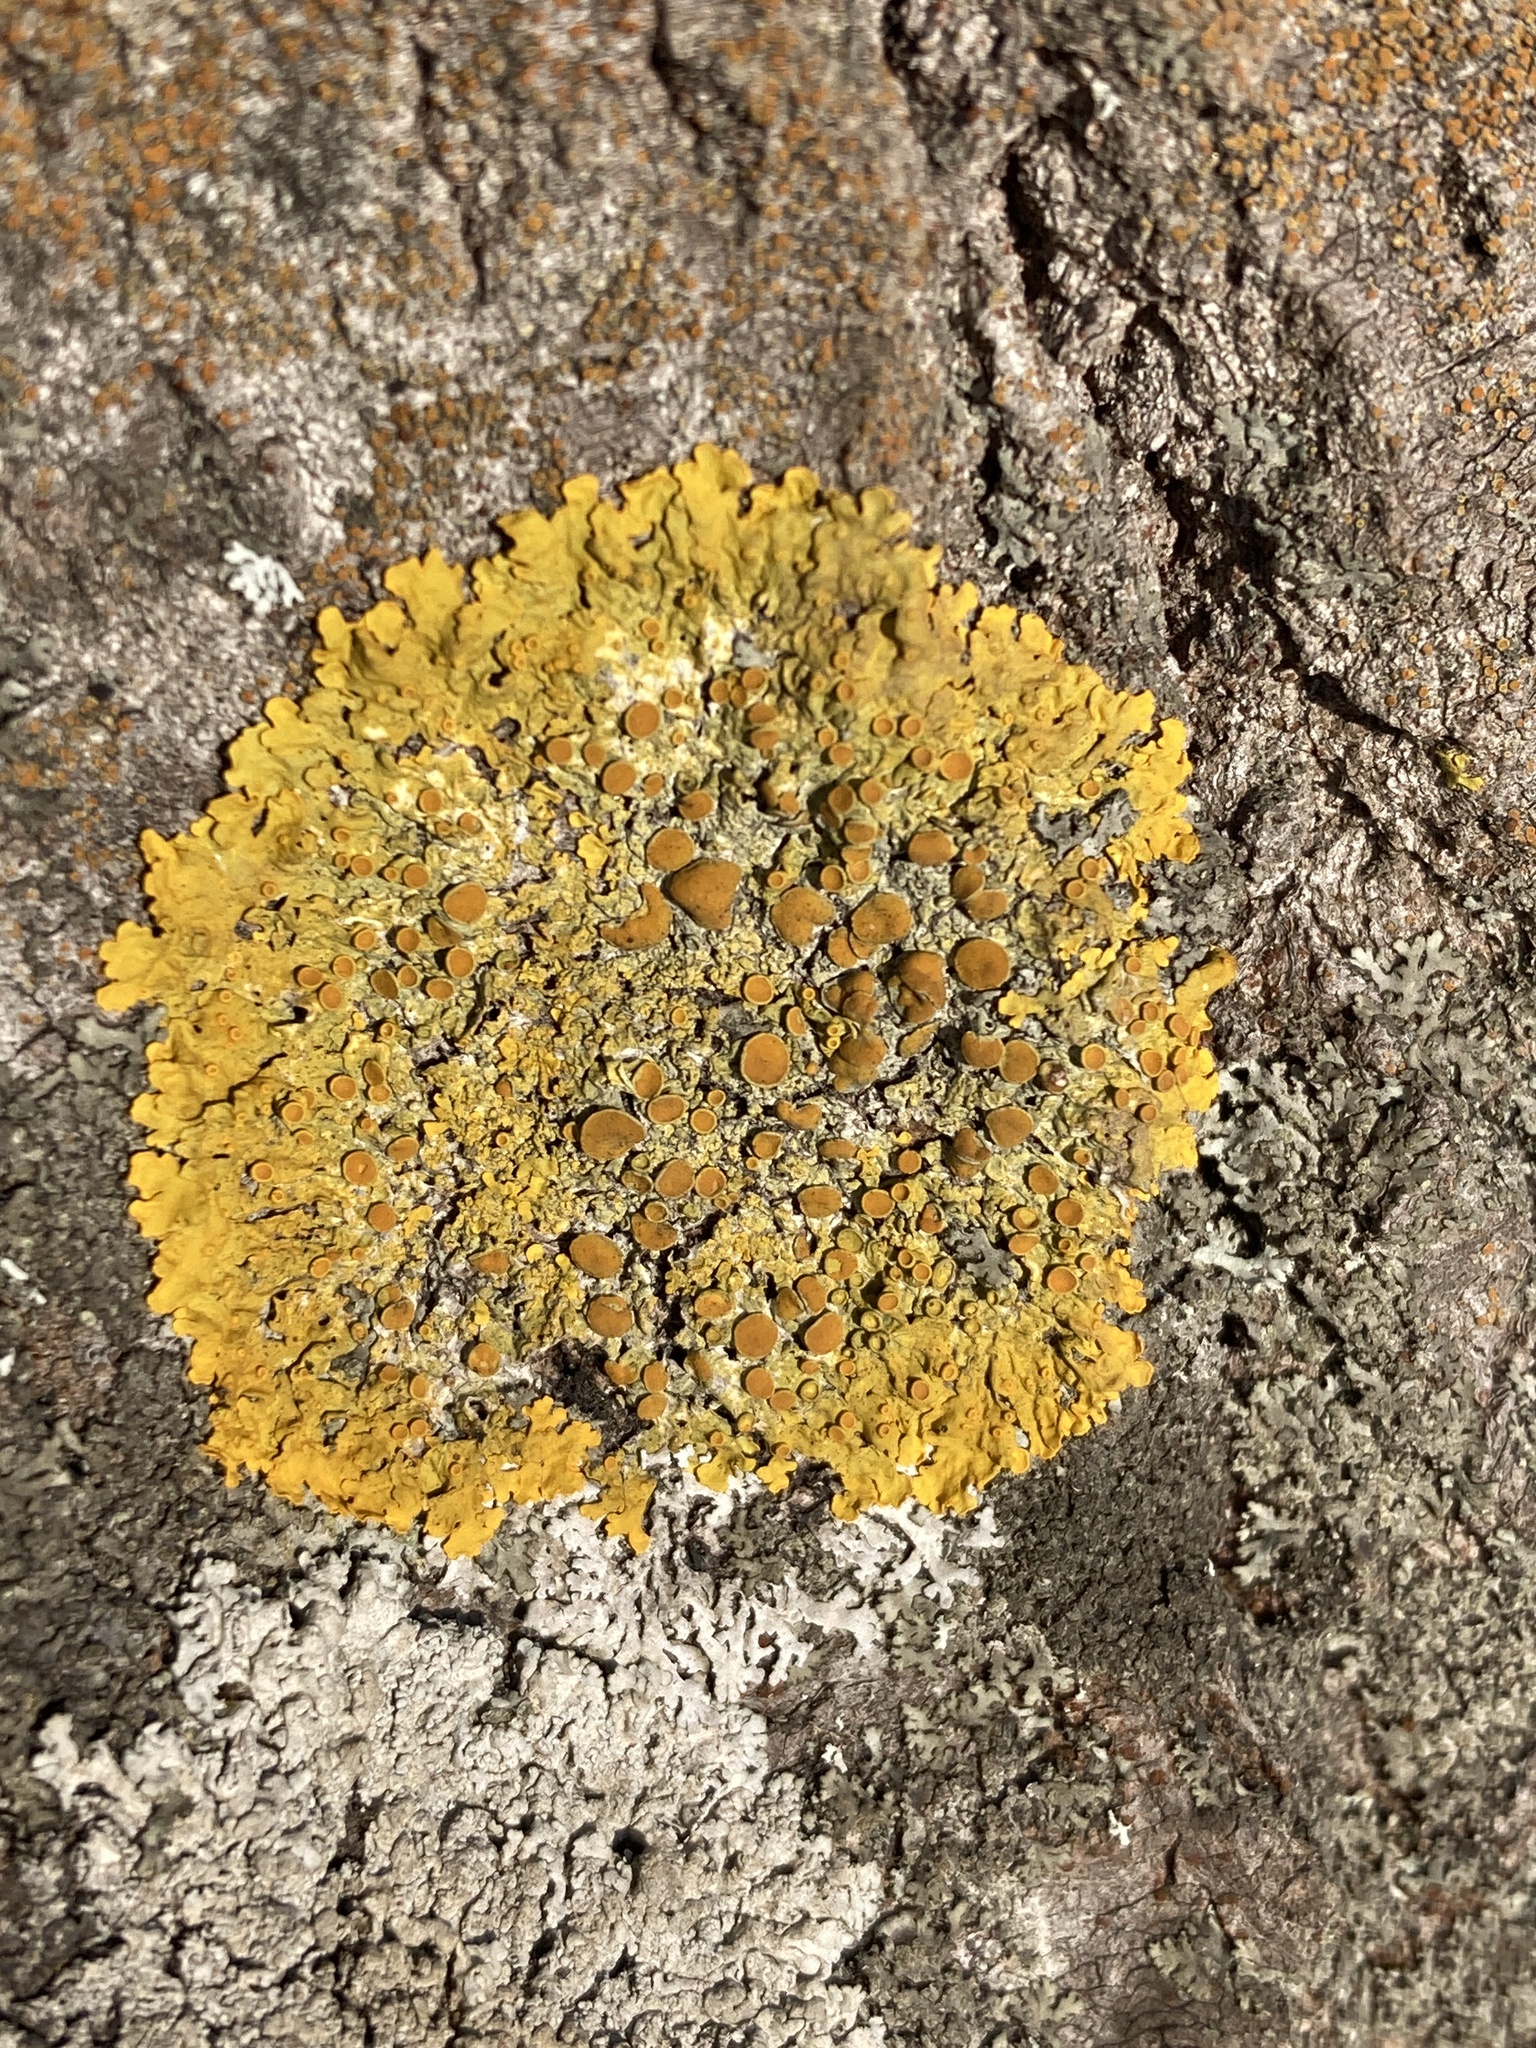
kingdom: Fungi
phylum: Ascomycota
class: Lecanoromycetes
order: Teloschistales
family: Teloschistaceae
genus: Xanthoria
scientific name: Xanthoria parietina
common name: Common orange lichen
